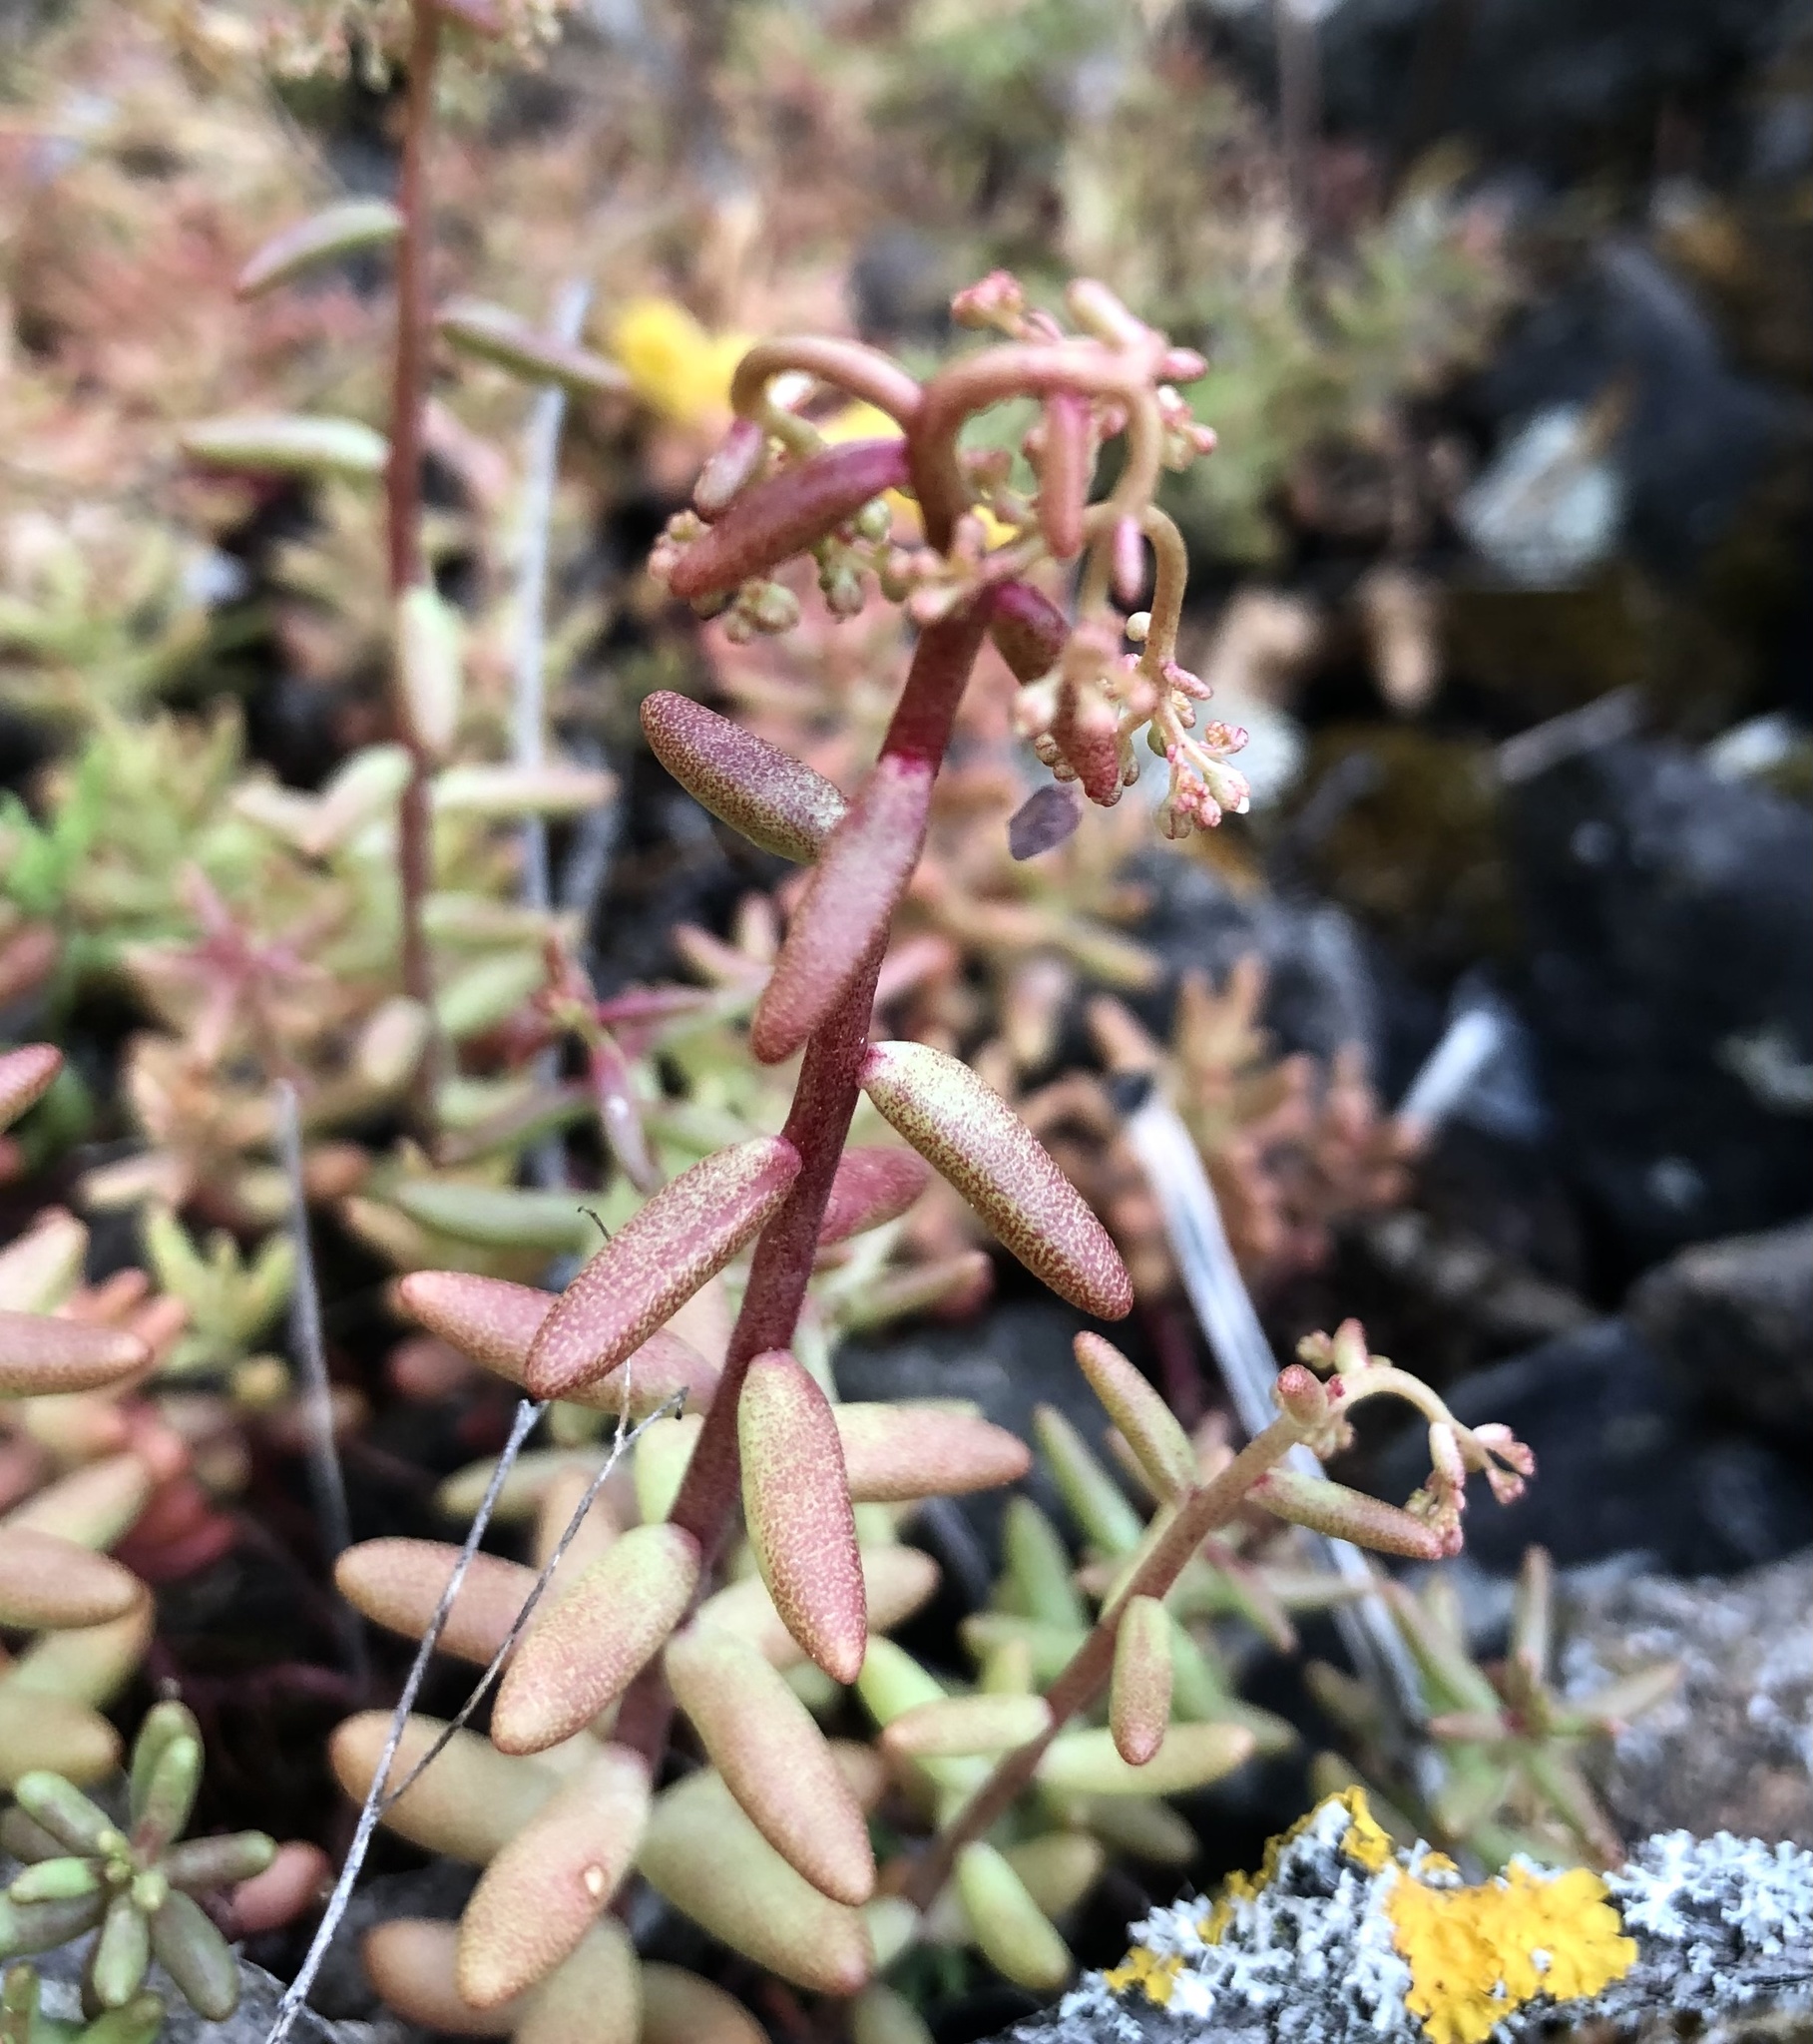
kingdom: Plantae
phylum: Tracheophyta
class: Magnoliopsida
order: Saxifragales
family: Crassulaceae
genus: Sedum
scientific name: Sedum album
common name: White stonecrop
